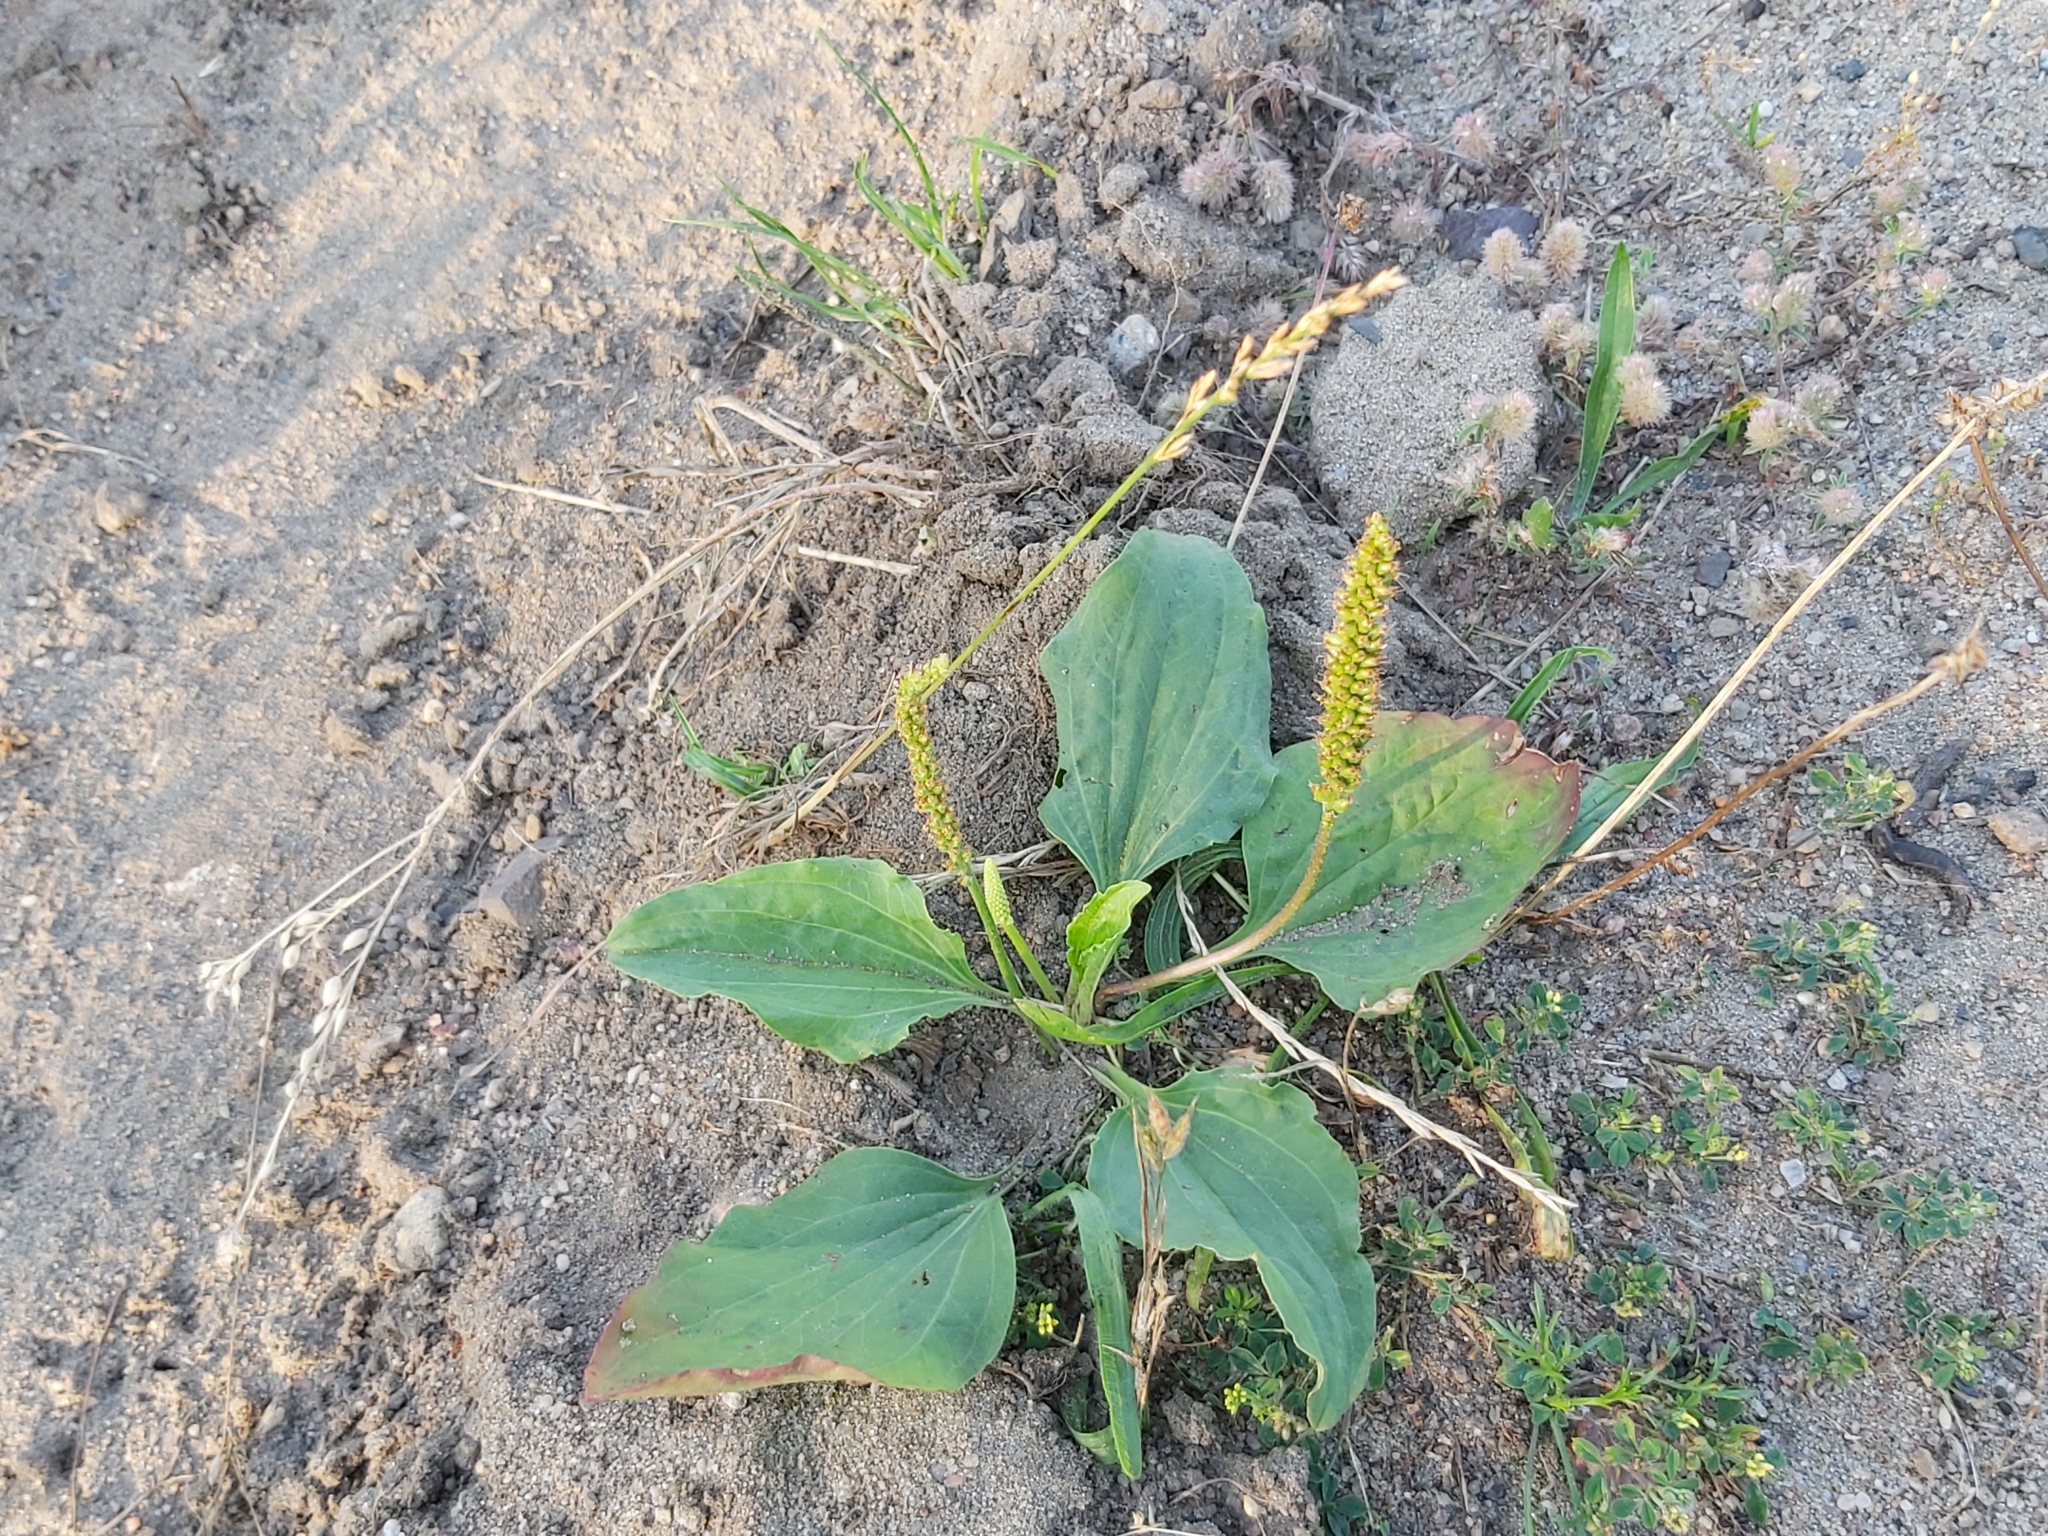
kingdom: Plantae
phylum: Tracheophyta
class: Magnoliopsida
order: Lamiales
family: Plantaginaceae
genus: Plantago
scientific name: Plantago major
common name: Common plantain
